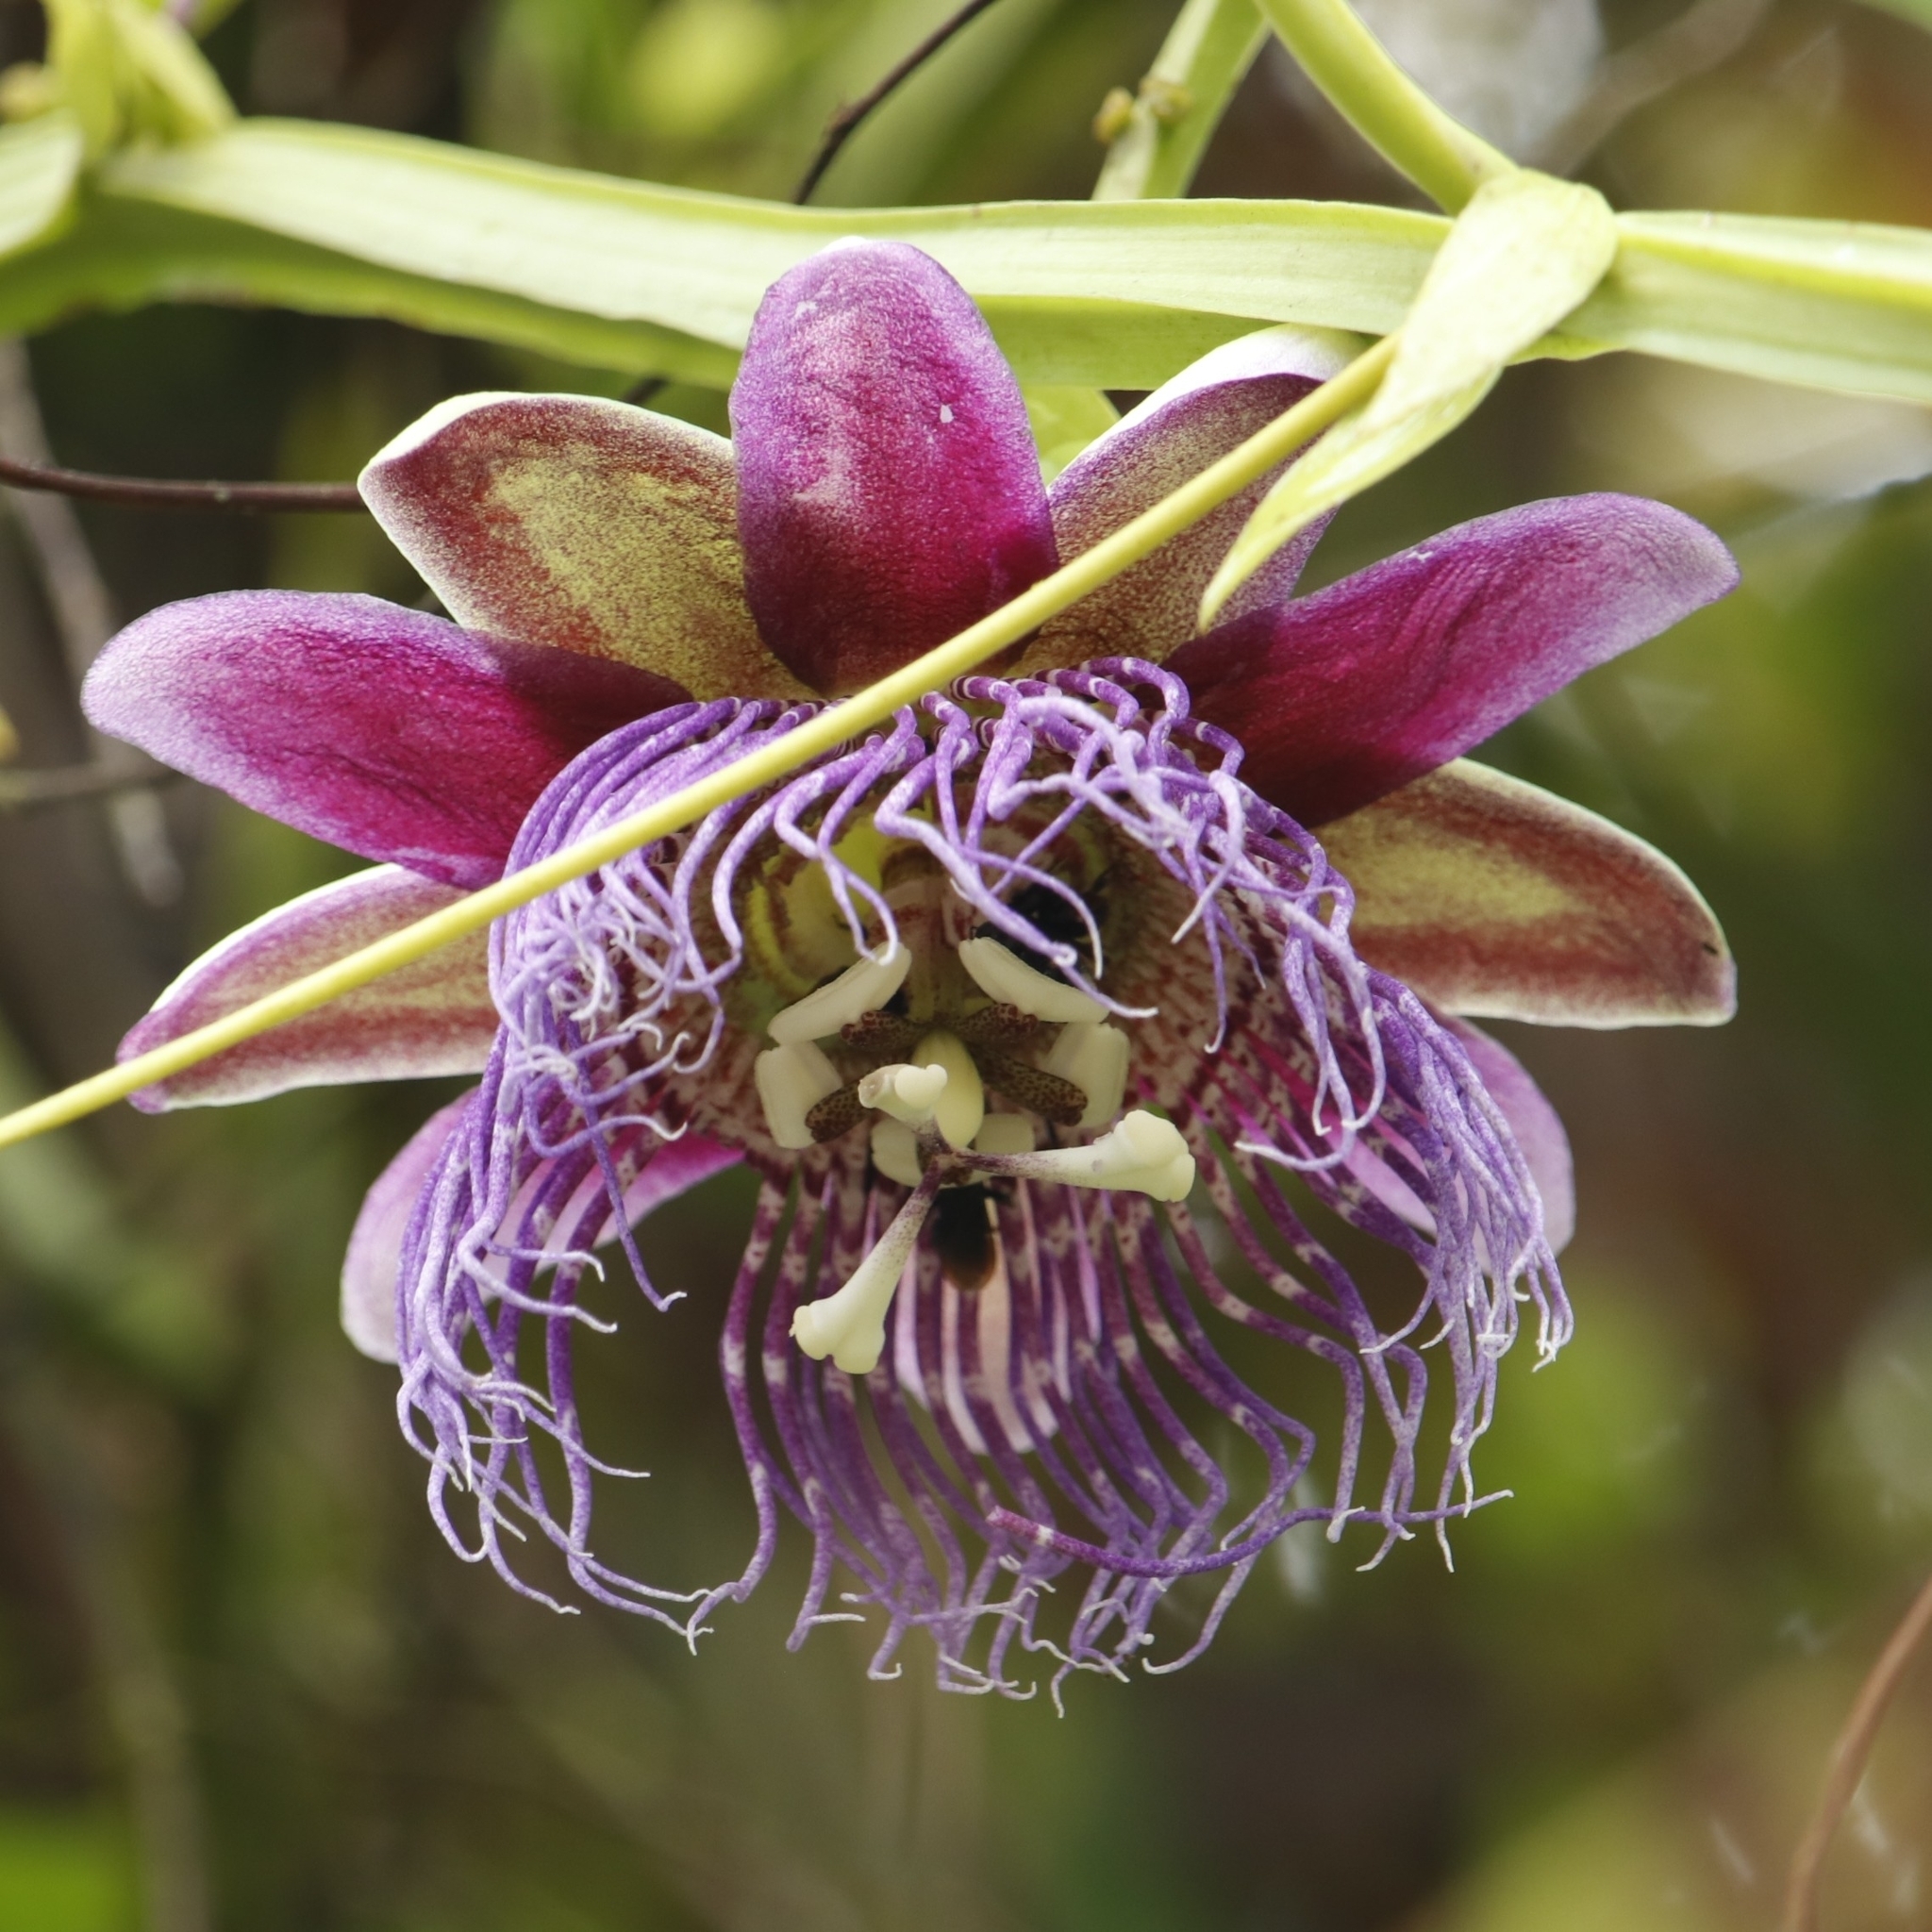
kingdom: Plantae
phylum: Tracheophyta
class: Magnoliopsida
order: Malpighiales
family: Passifloraceae
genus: Passiflora
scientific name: Passiflora quadrangularis
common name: Giant granadilla
